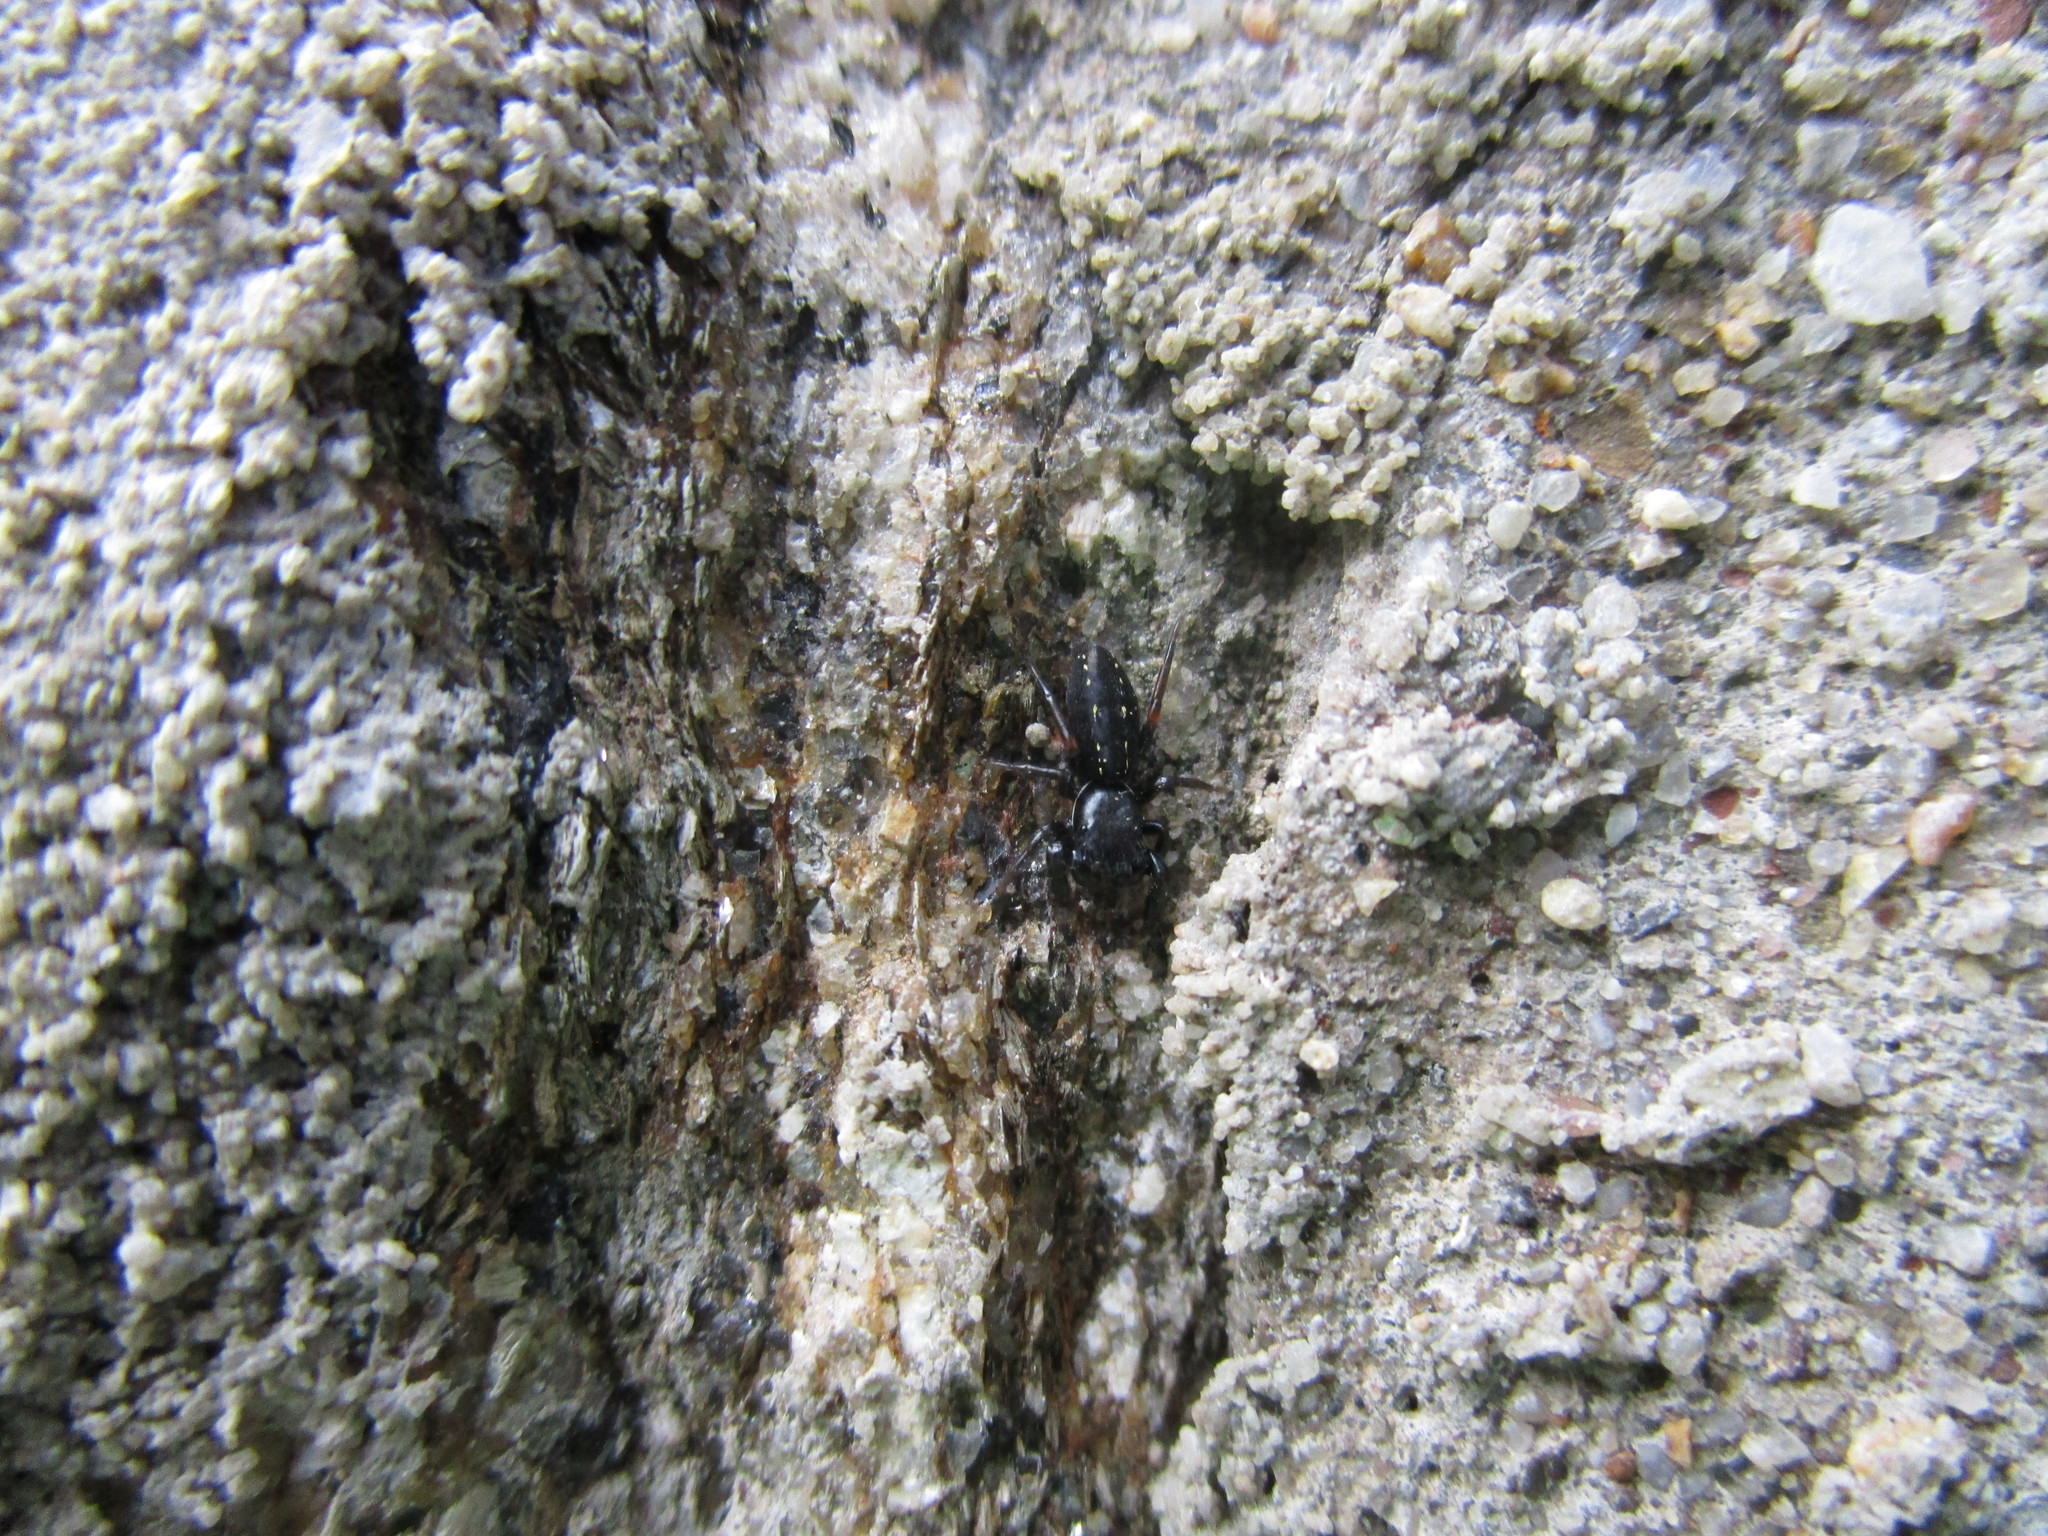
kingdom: Animalia
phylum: Arthropoda
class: Arachnida
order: Araneae
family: Salticidae
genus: Metacyrba
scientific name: Metacyrba taeniola
